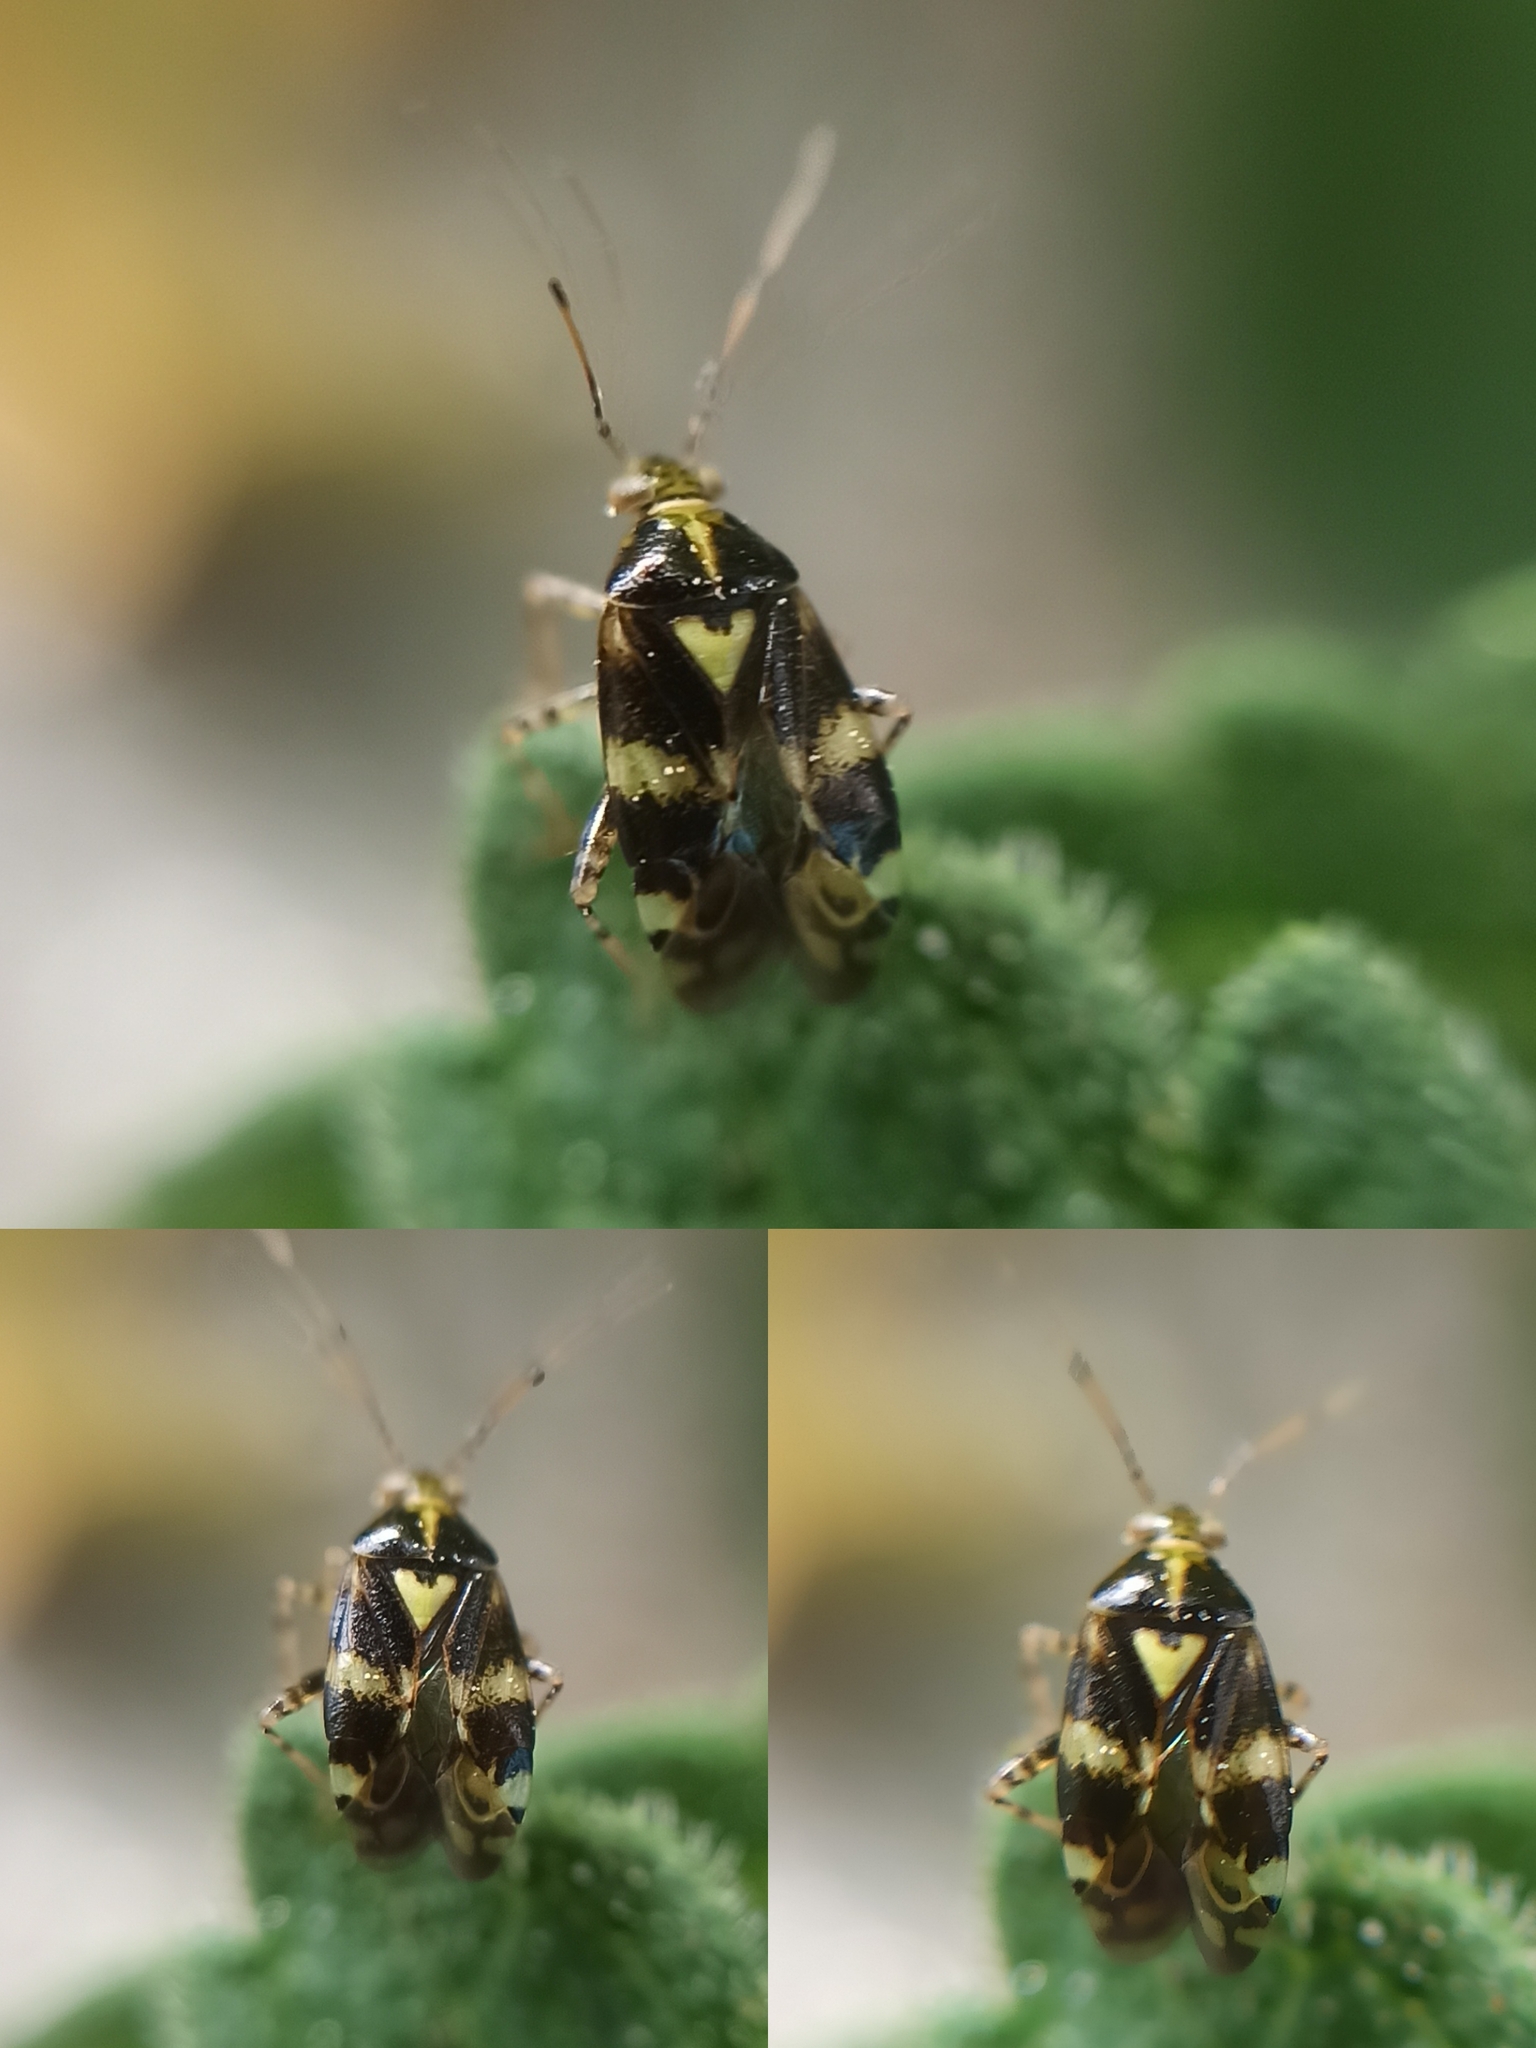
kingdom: Animalia
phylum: Arthropoda
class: Insecta
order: Hemiptera
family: Miridae
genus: Liocoris
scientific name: Liocoris tripustulatus
